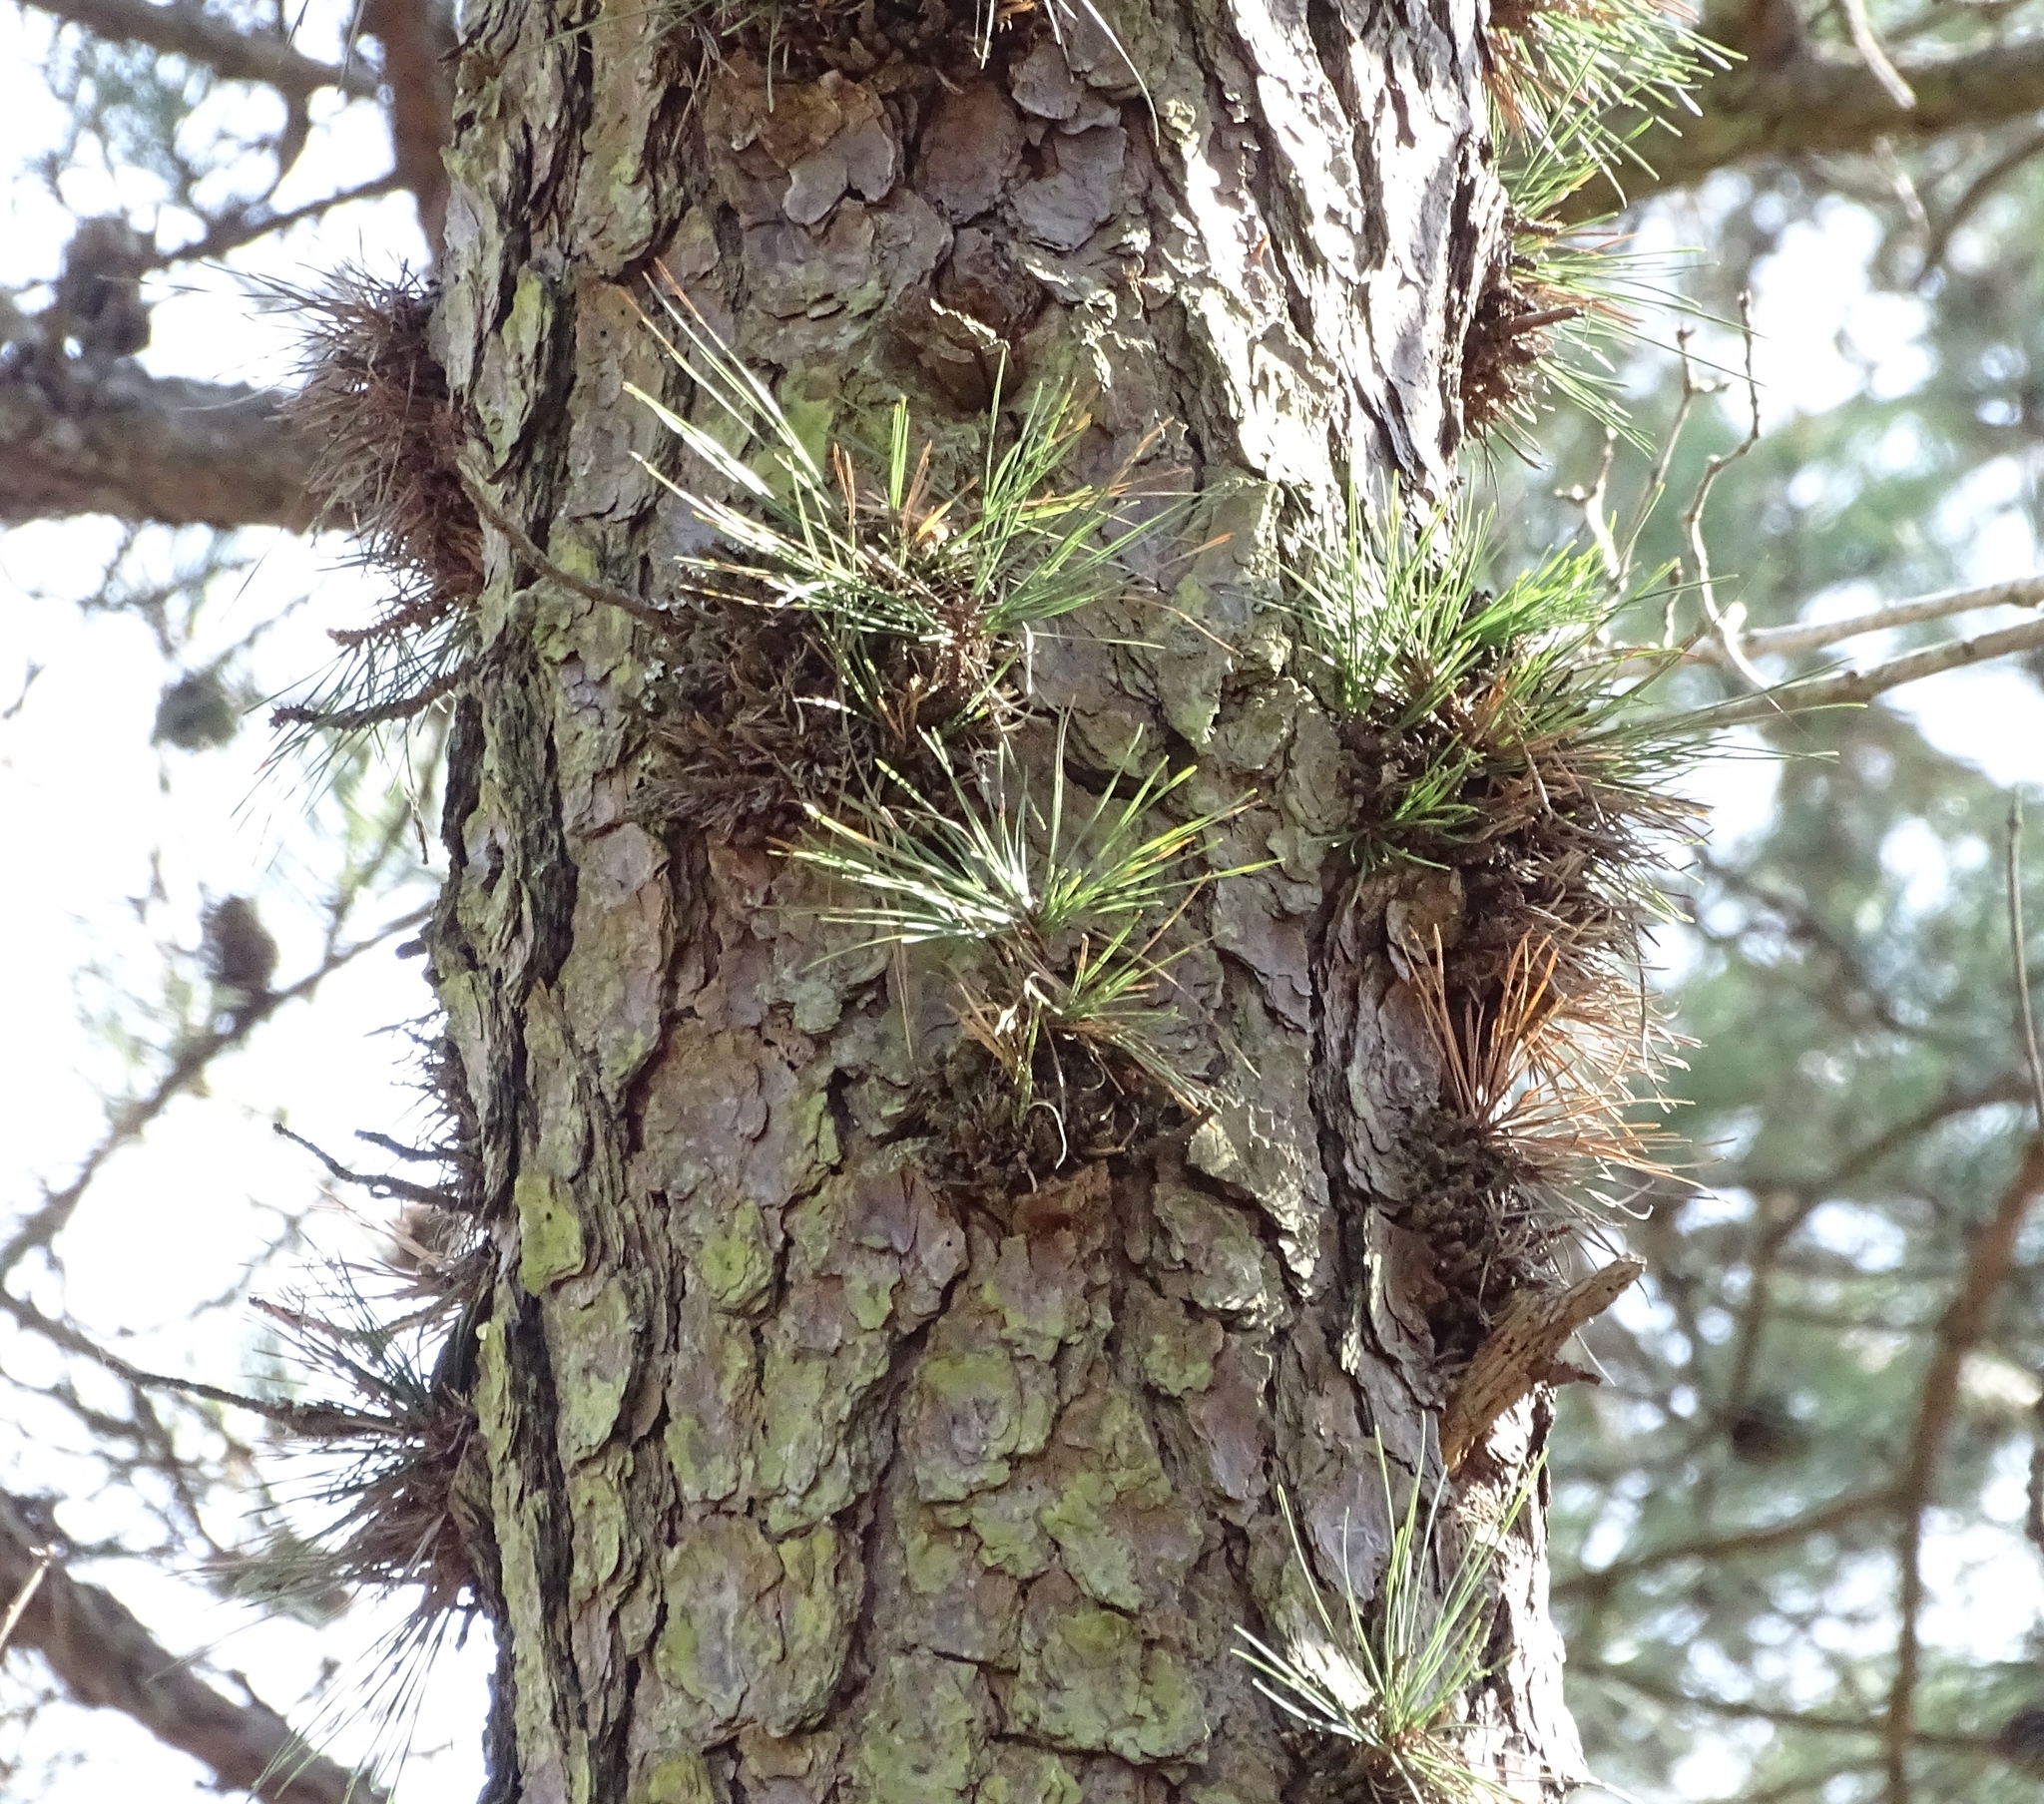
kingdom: Plantae
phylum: Tracheophyta
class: Pinopsida
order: Pinales
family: Pinaceae
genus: Pinus
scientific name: Pinus rigida
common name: Pitch pine
